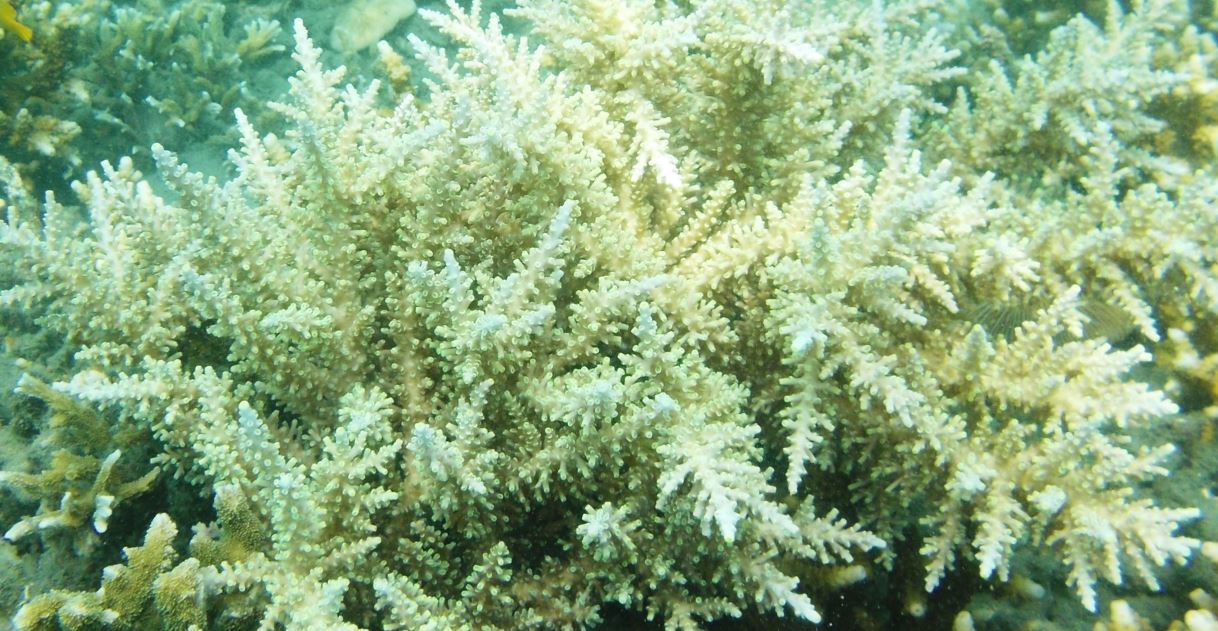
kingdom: Animalia
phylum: Cnidaria
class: Anthozoa
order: Scleractinia
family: Acroporidae
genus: Acropora
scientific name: Acropora longicyathus
